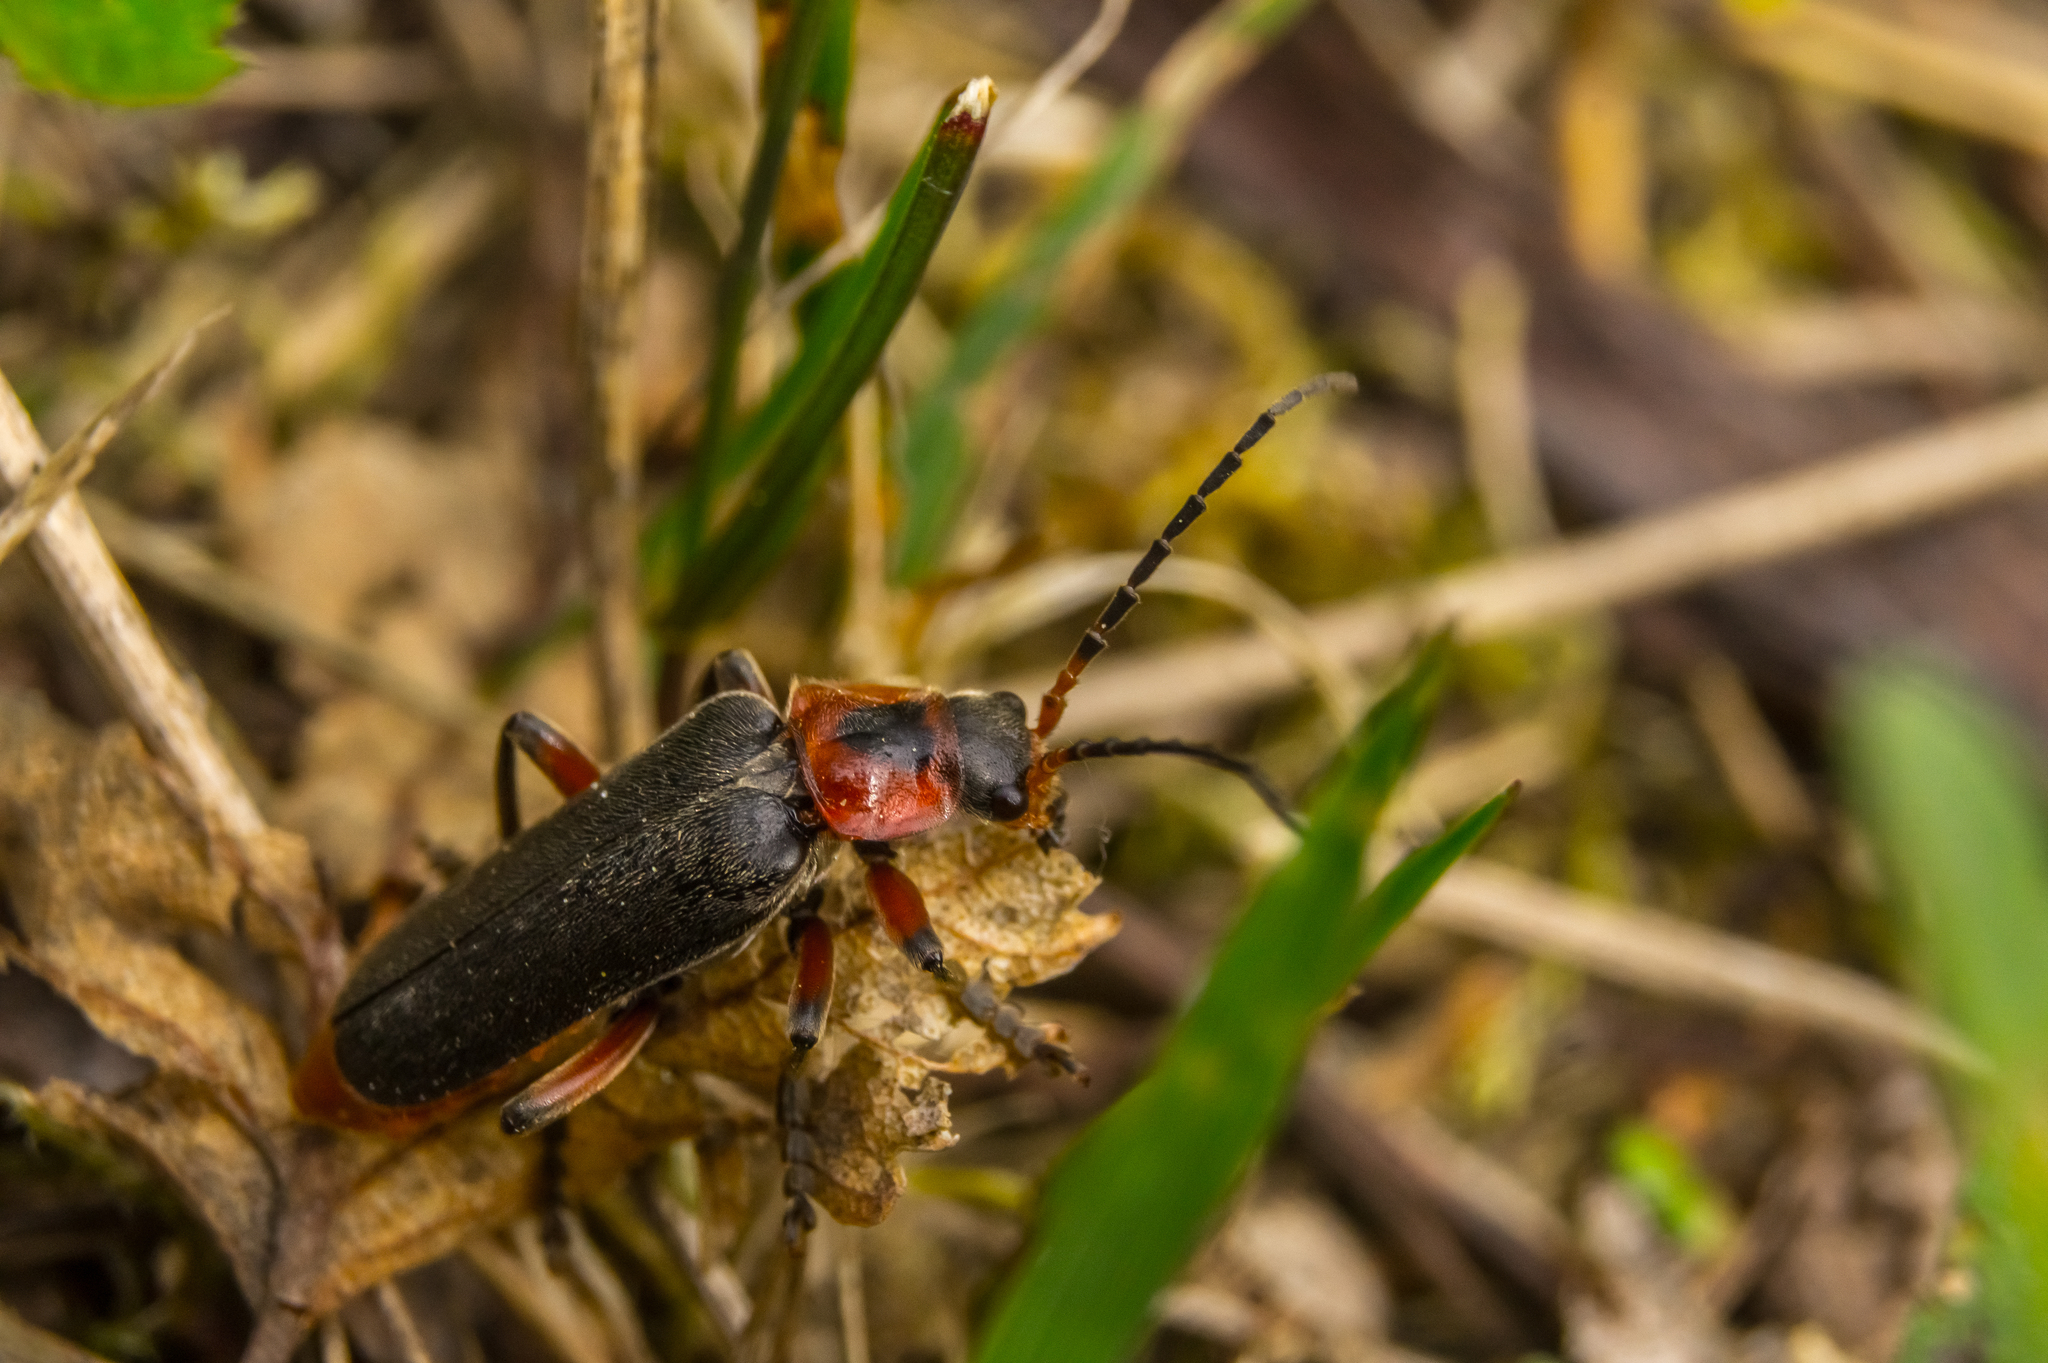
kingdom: Animalia
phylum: Arthropoda
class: Insecta
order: Coleoptera
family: Cantharidae
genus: Cantharis
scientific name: Cantharis rustica
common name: Soldier beetle
